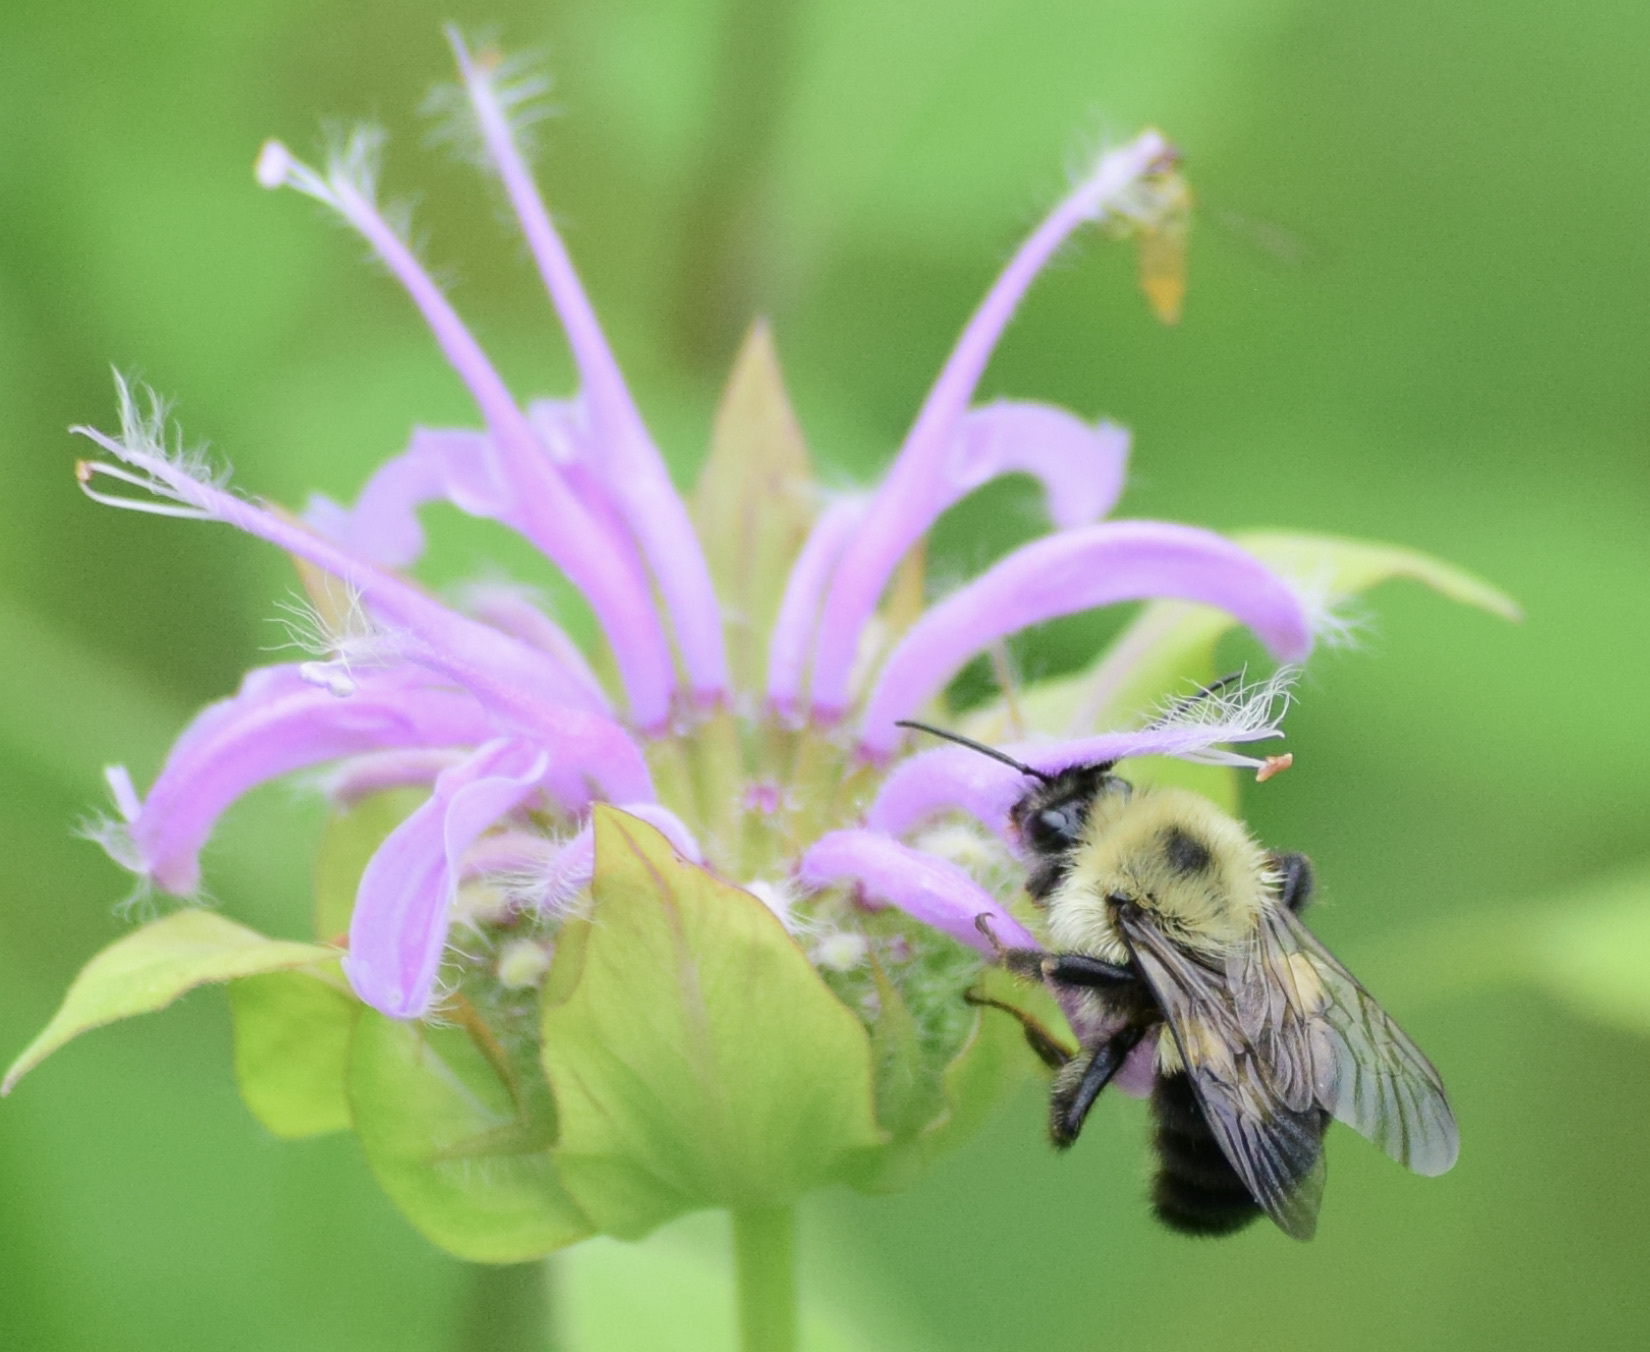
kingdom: Animalia
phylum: Arthropoda
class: Insecta
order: Hymenoptera
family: Apidae
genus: Bombus
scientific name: Bombus bimaculatus
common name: Two-spotted bumble bee
